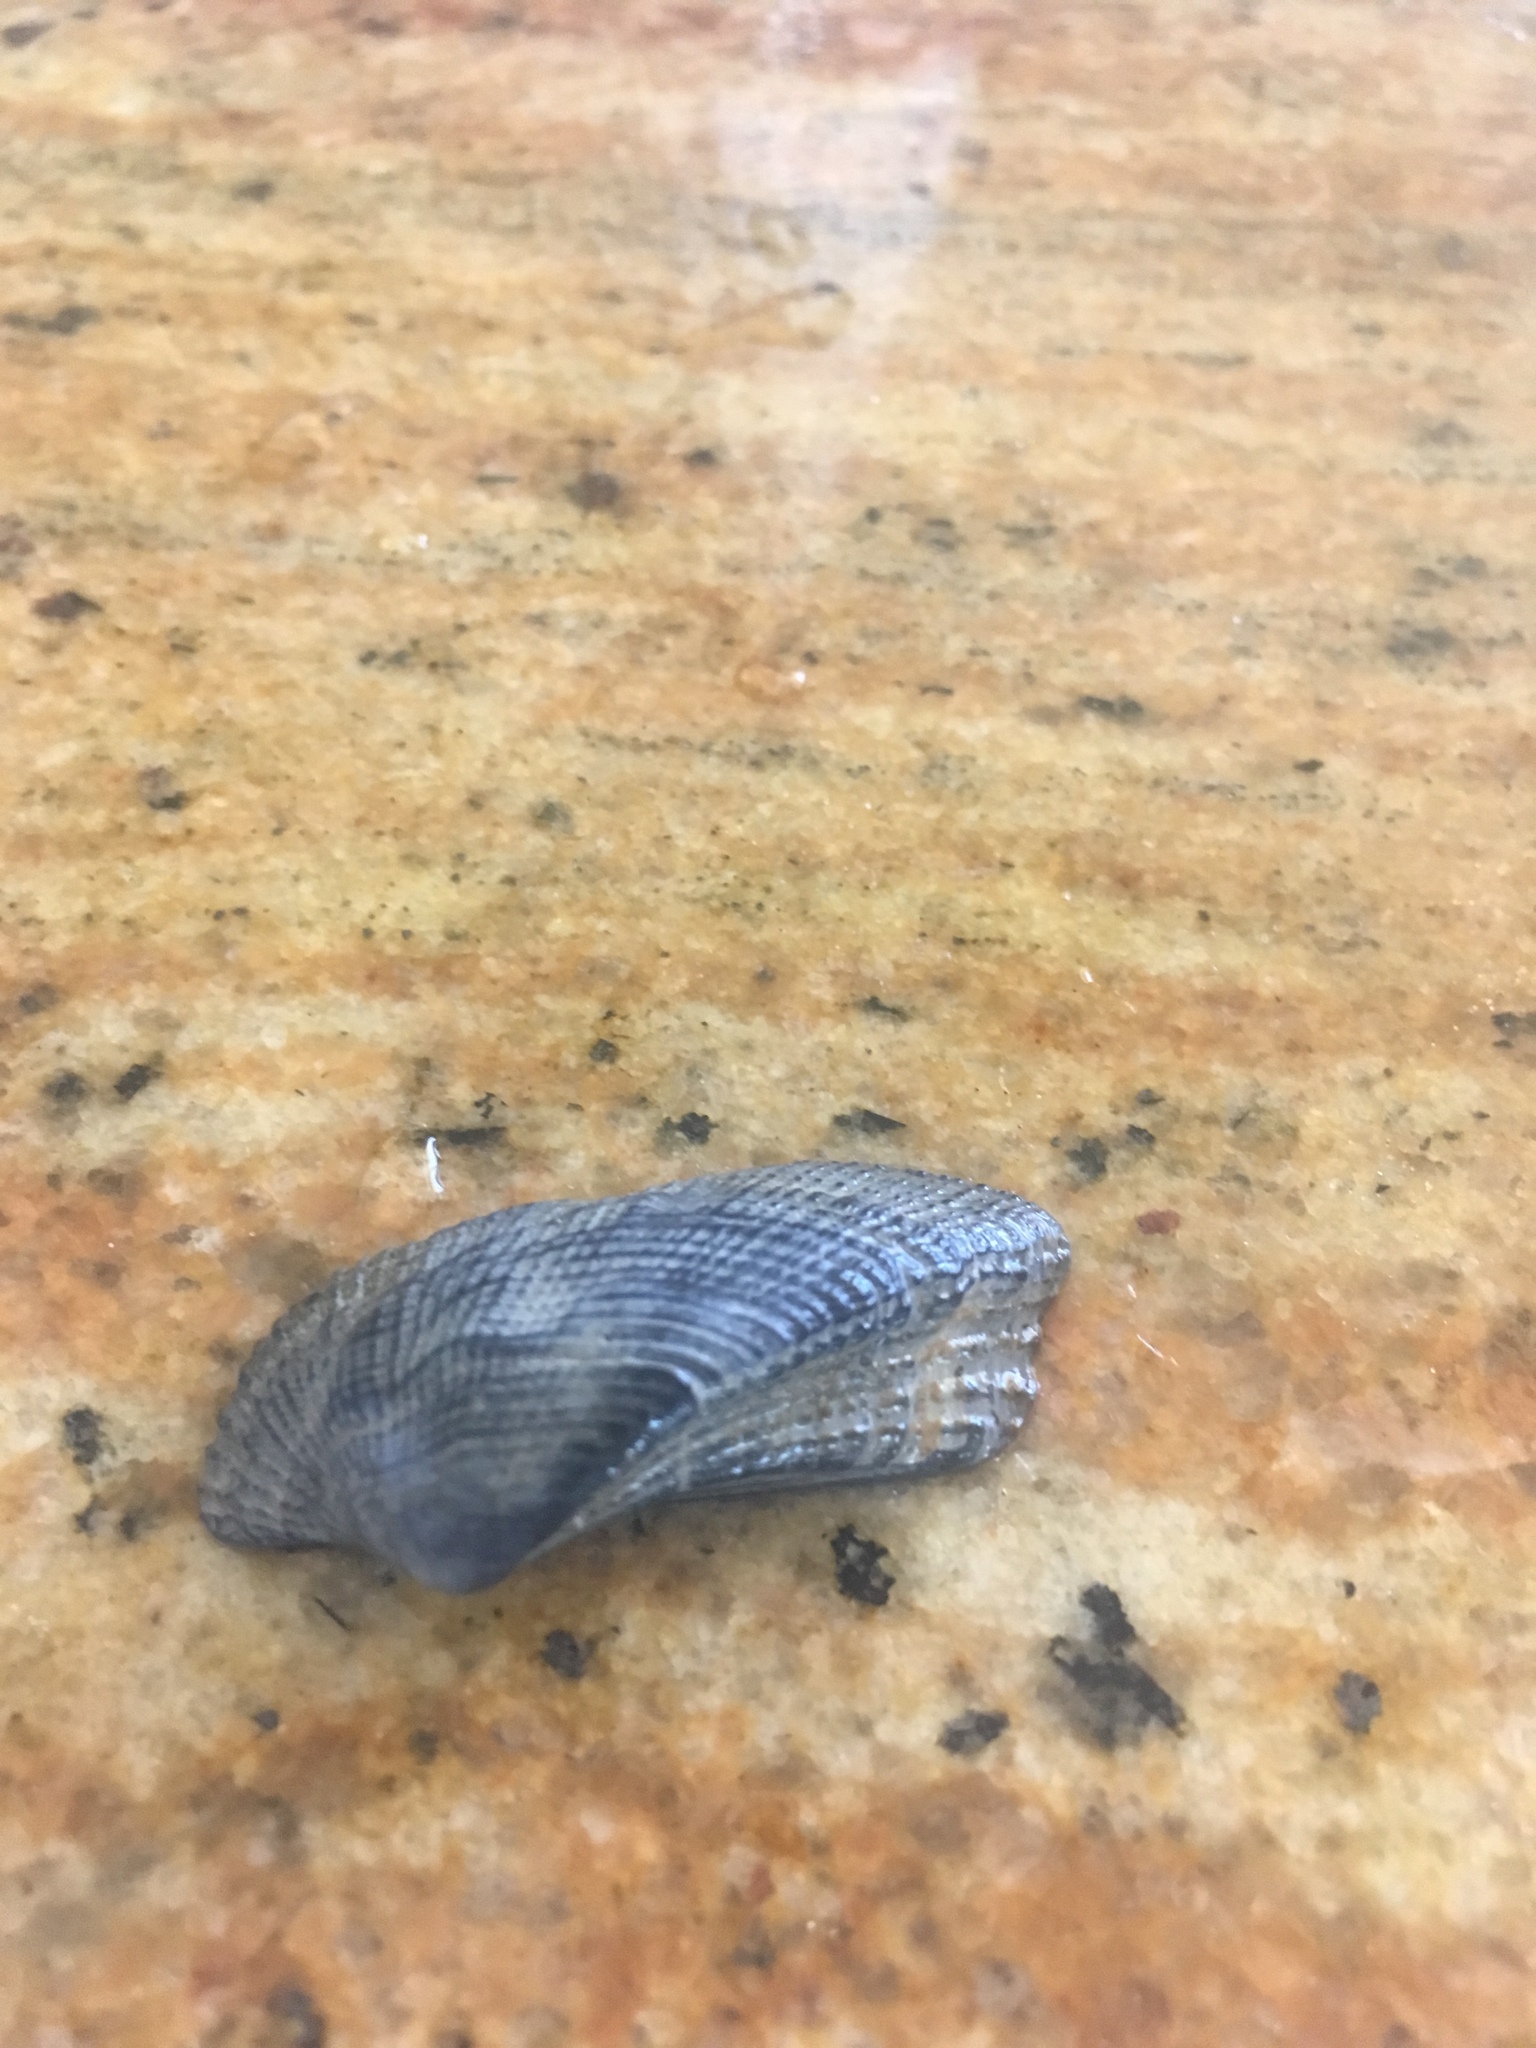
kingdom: Animalia
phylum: Mollusca
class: Bivalvia
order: Arcida
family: Arcidae
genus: Lamarcka
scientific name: Lamarcka imbricata
